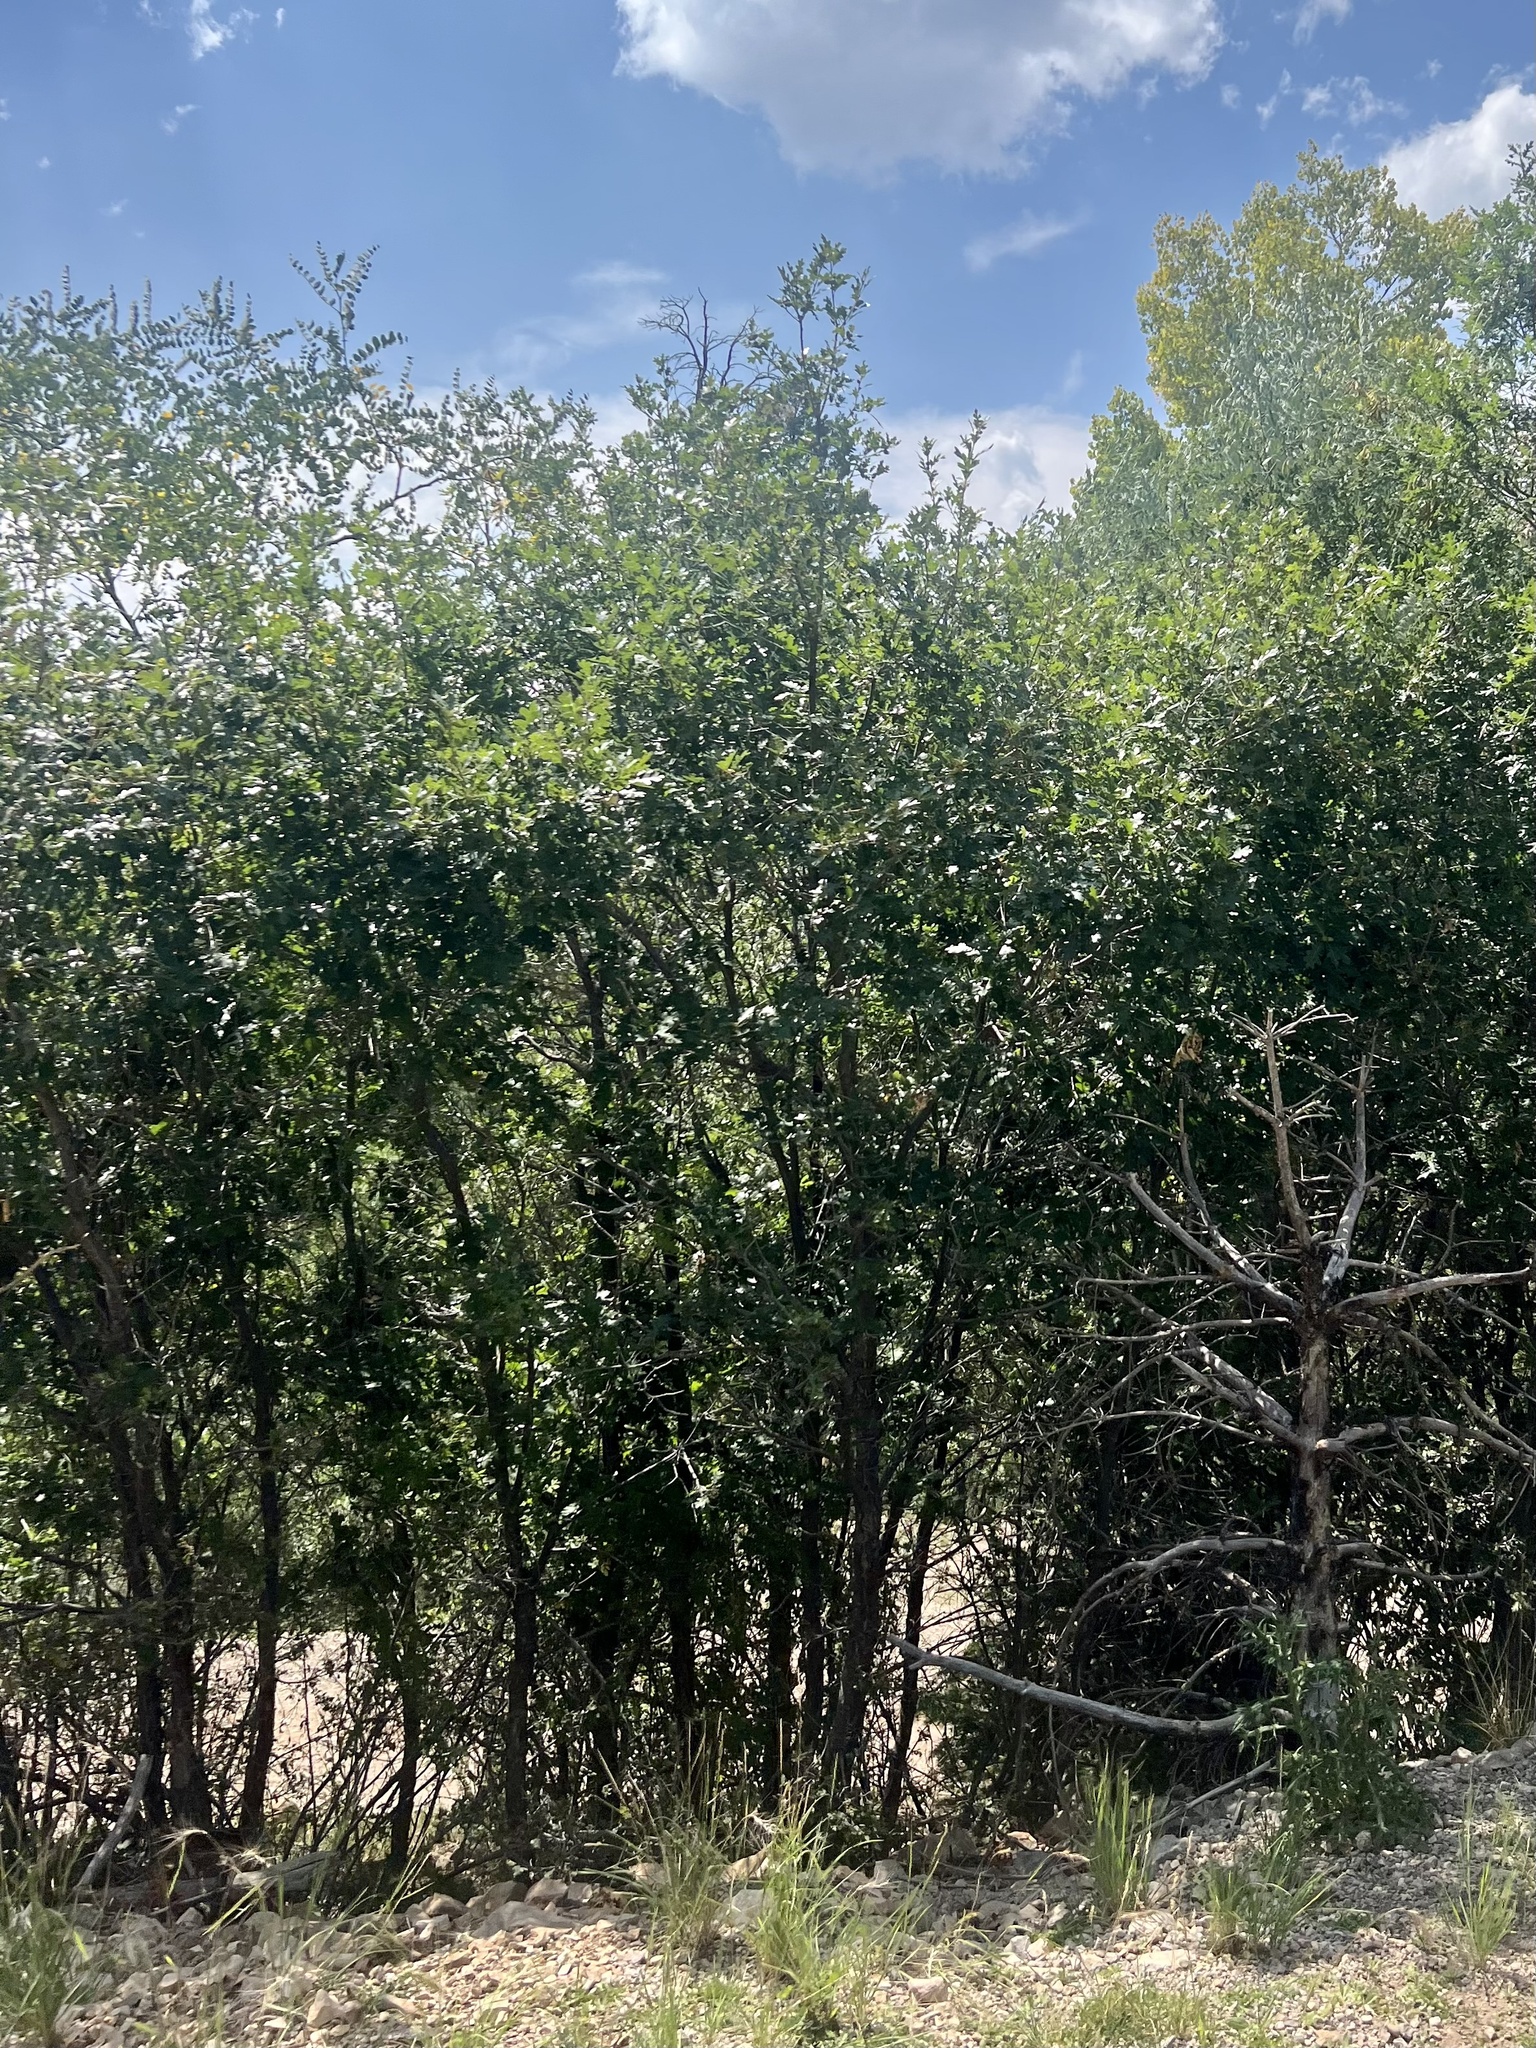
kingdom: Plantae
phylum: Tracheophyta
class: Magnoliopsida
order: Fagales
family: Fagaceae
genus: Quercus
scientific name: Quercus gambelii
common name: Gambel oak
